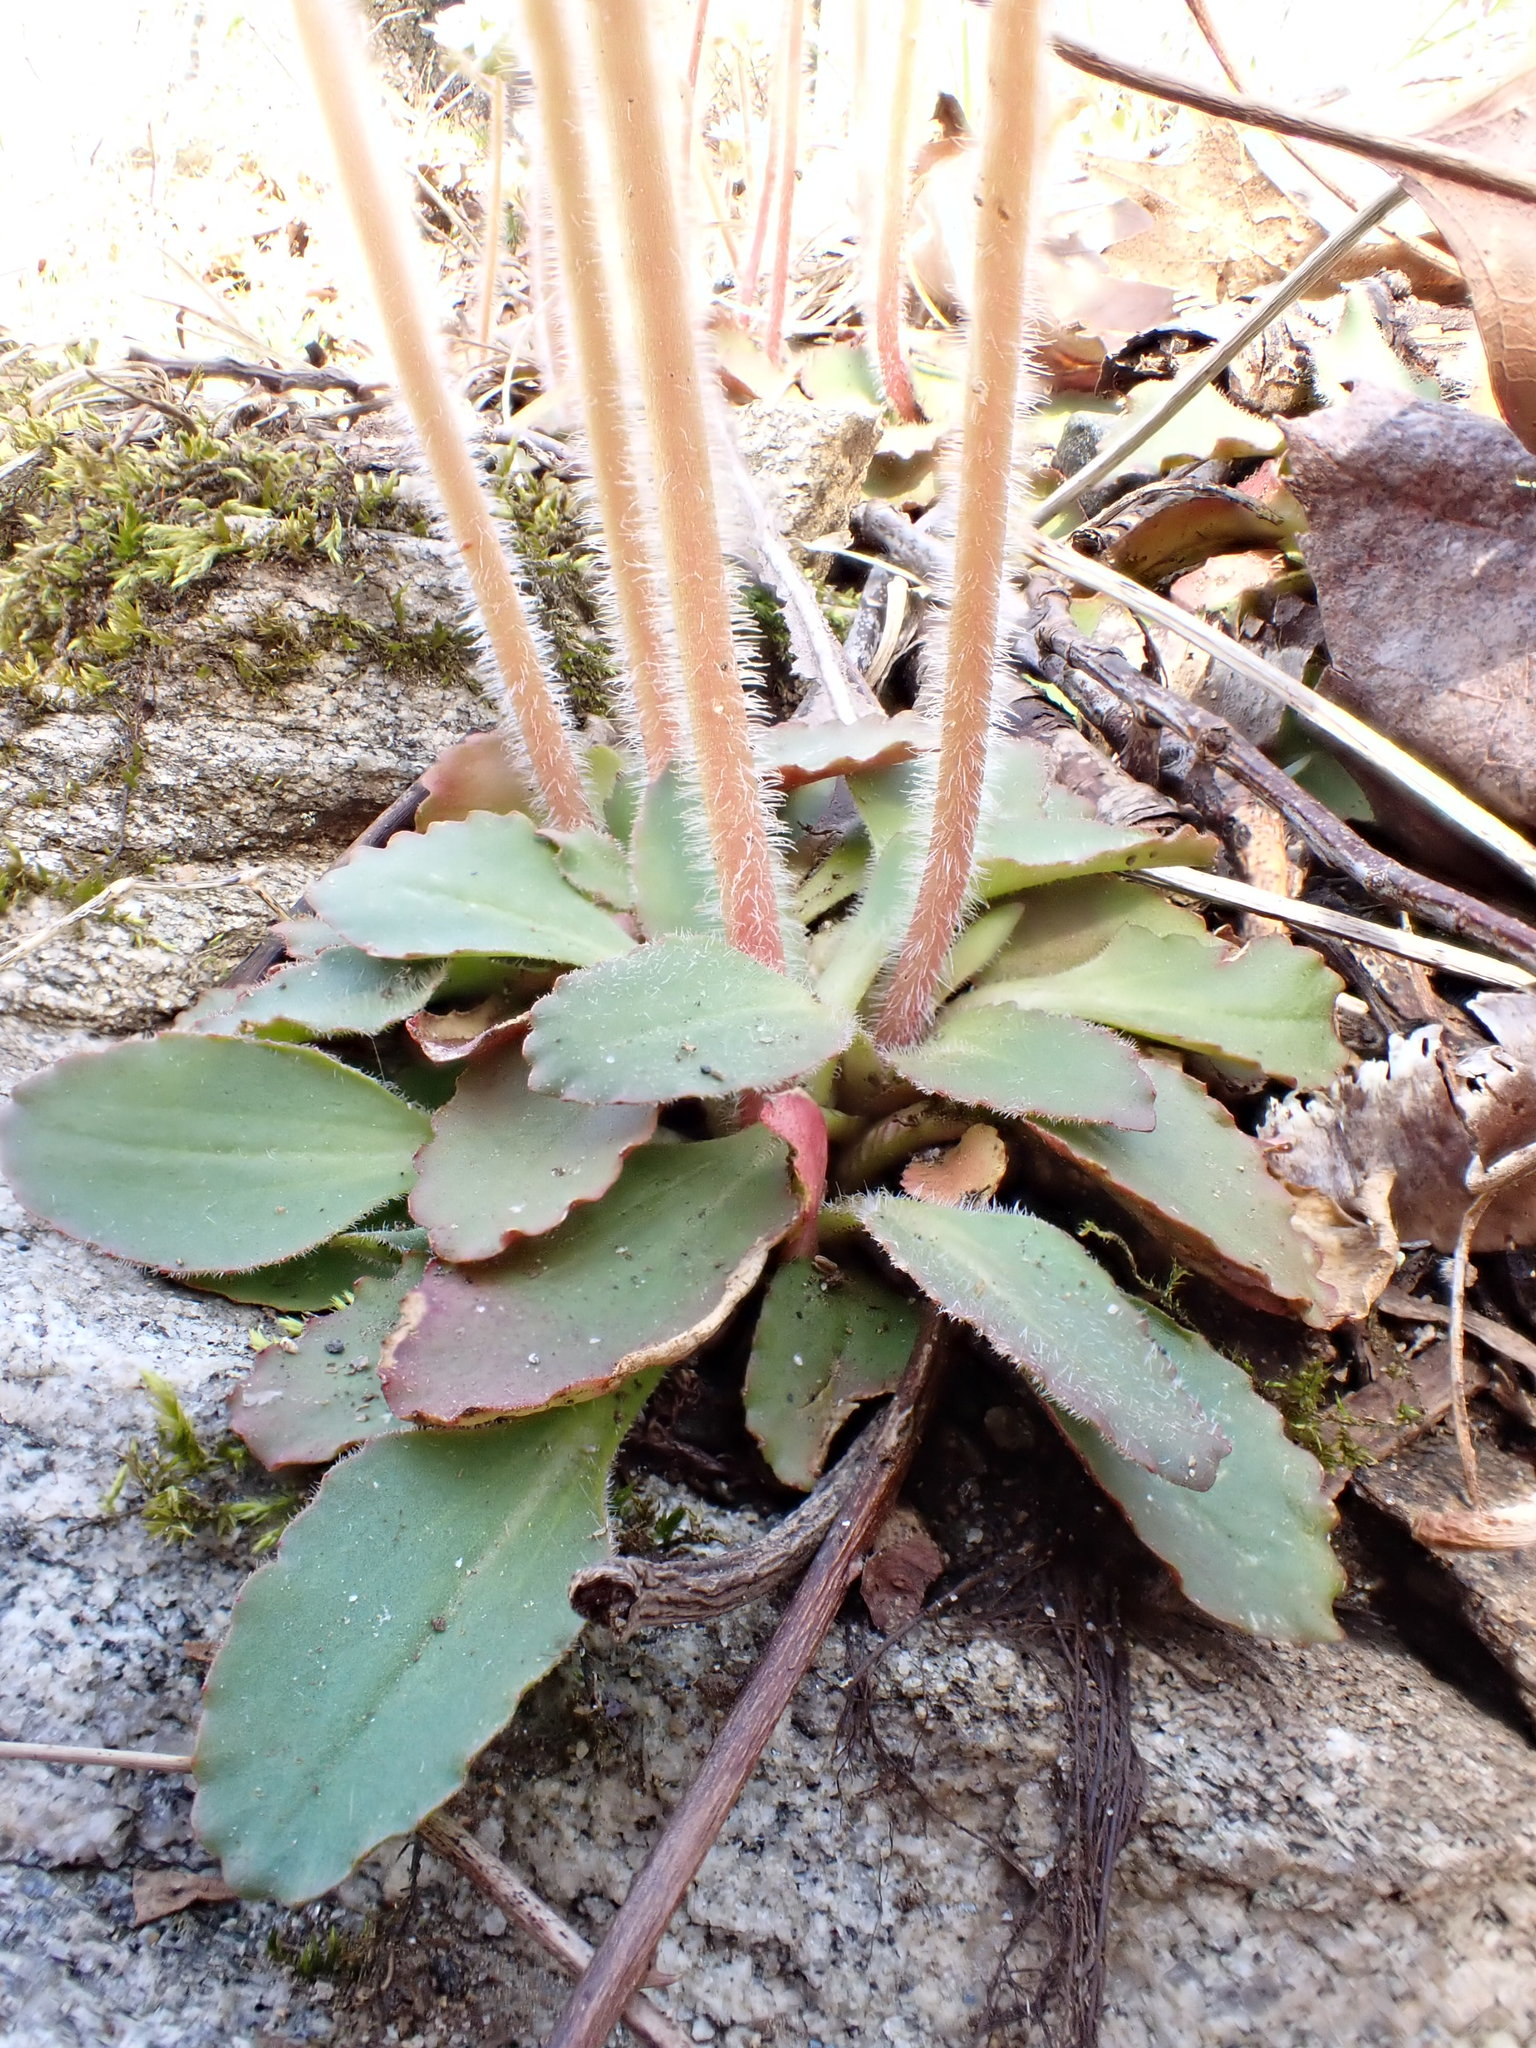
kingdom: Plantae
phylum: Tracheophyta
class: Magnoliopsida
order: Saxifragales
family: Saxifragaceae
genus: Micranthes
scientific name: Micranthes virginiensis
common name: Early saxifrage
